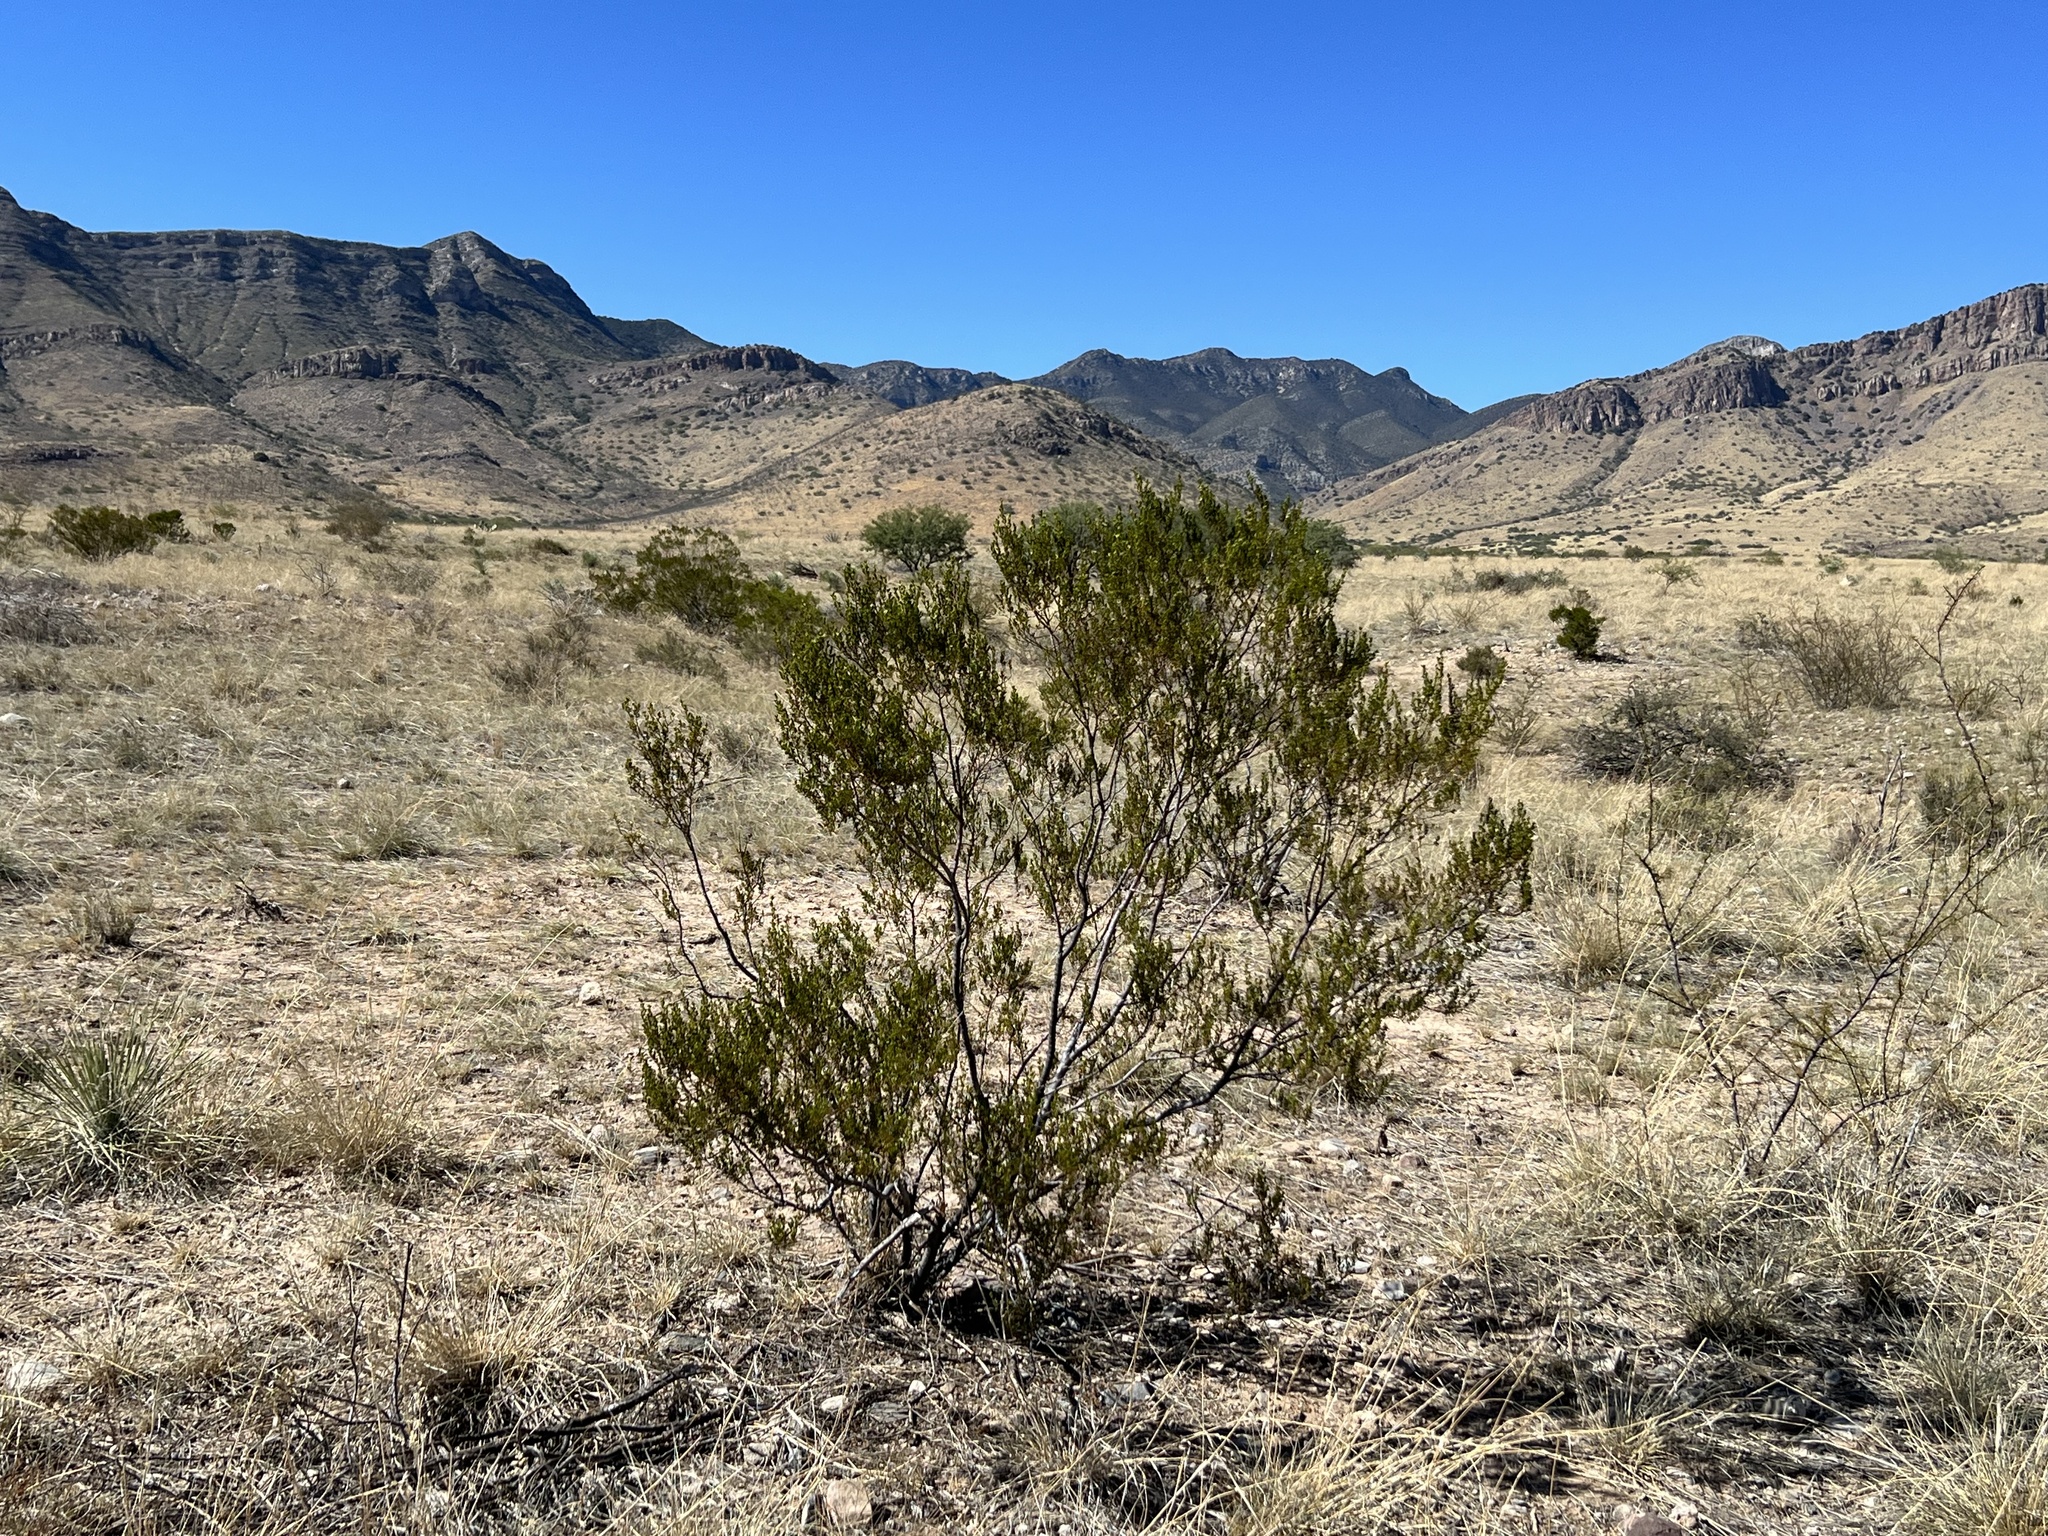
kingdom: Plantae
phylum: Tracheophyta
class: Magnoliopsida
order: Zygophyllales
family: Zygophyllaceae
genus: Larrea
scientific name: Larrea tridentata
